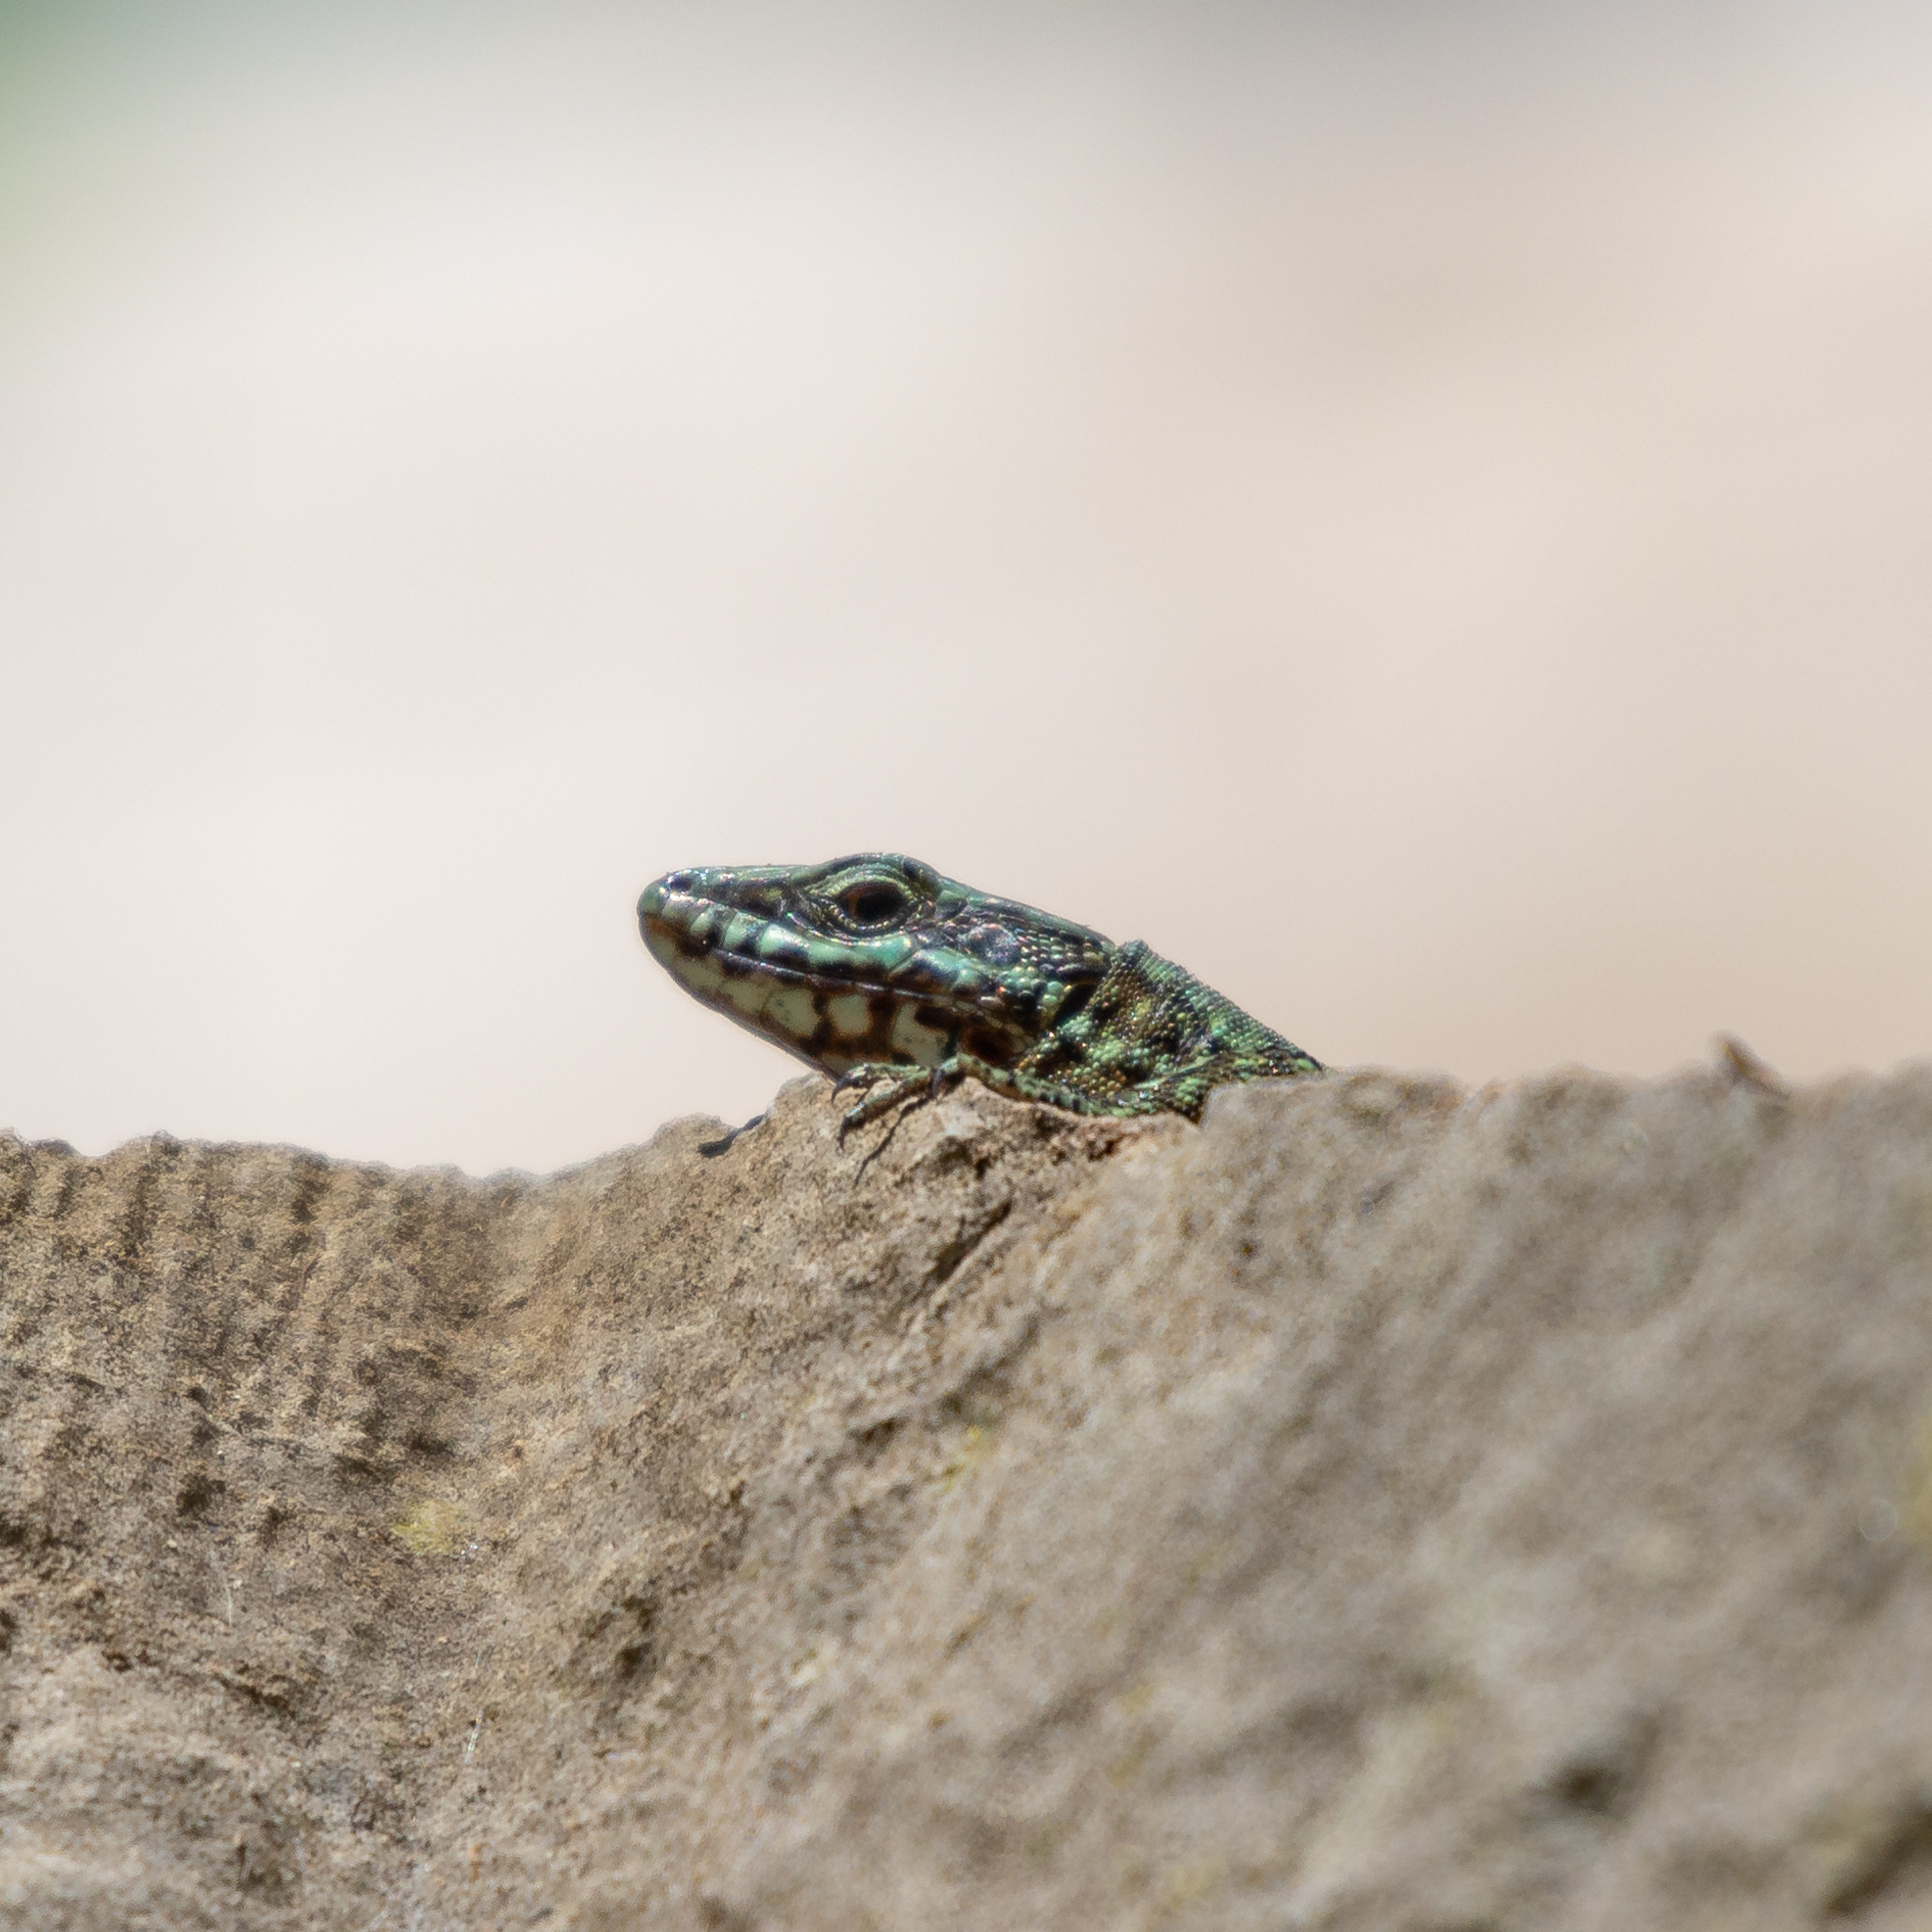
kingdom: Animalia
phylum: Chordata
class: Squamata
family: Lacertidae
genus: Podarcis
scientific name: Podarcis muralis
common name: Common wall lizard
